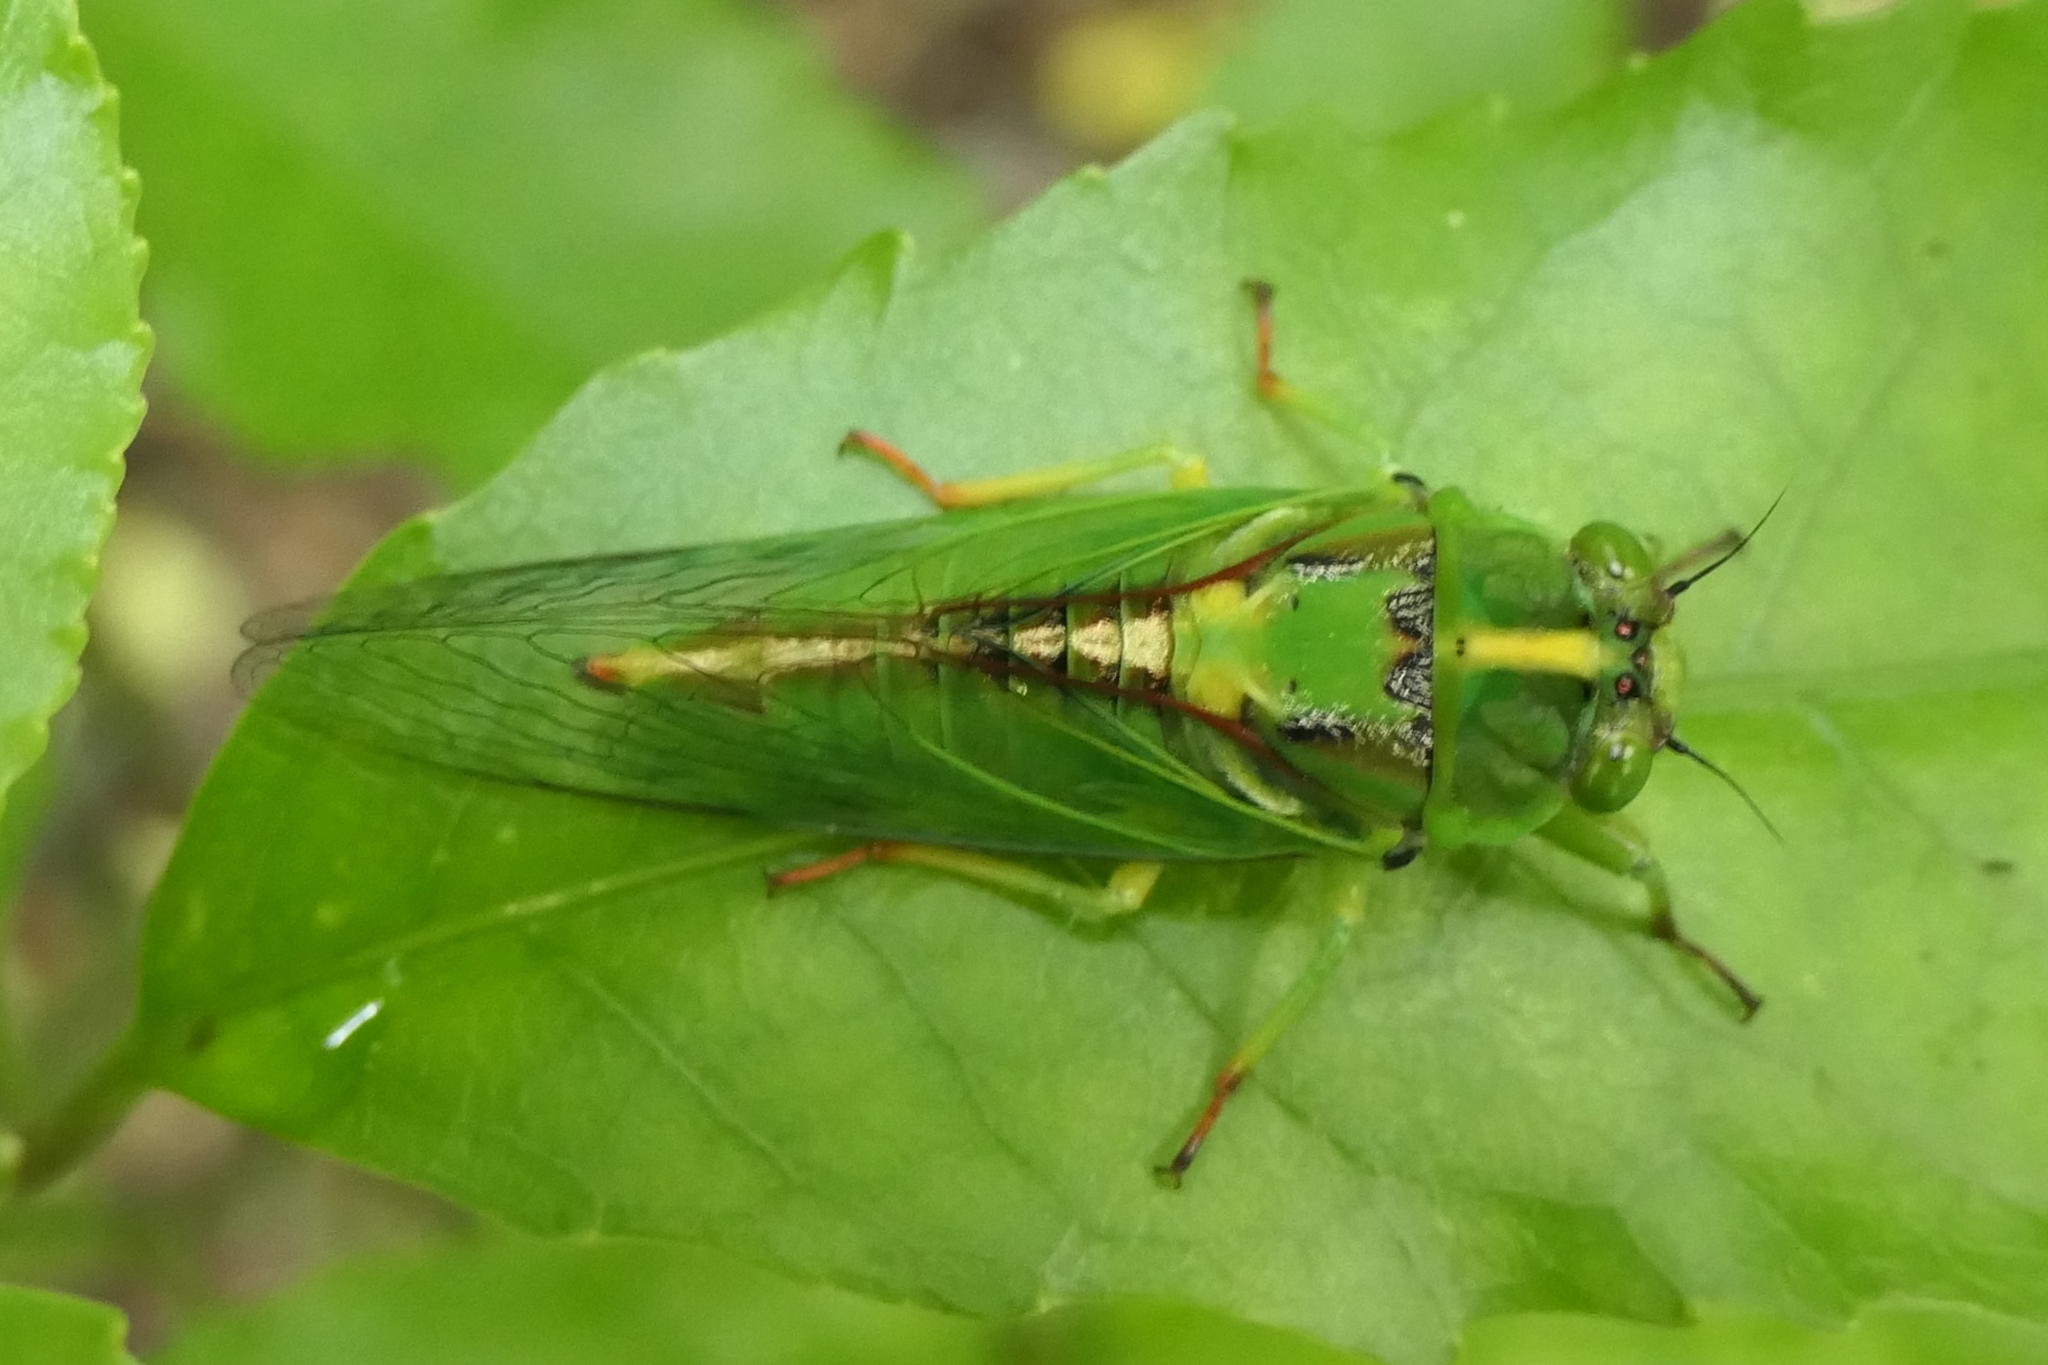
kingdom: Animalia
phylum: Arthropoda
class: Insecta
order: Hemiptera
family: Cicadidae
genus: Kikihia
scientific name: Kikihia subalpina
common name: Chathams cicada
